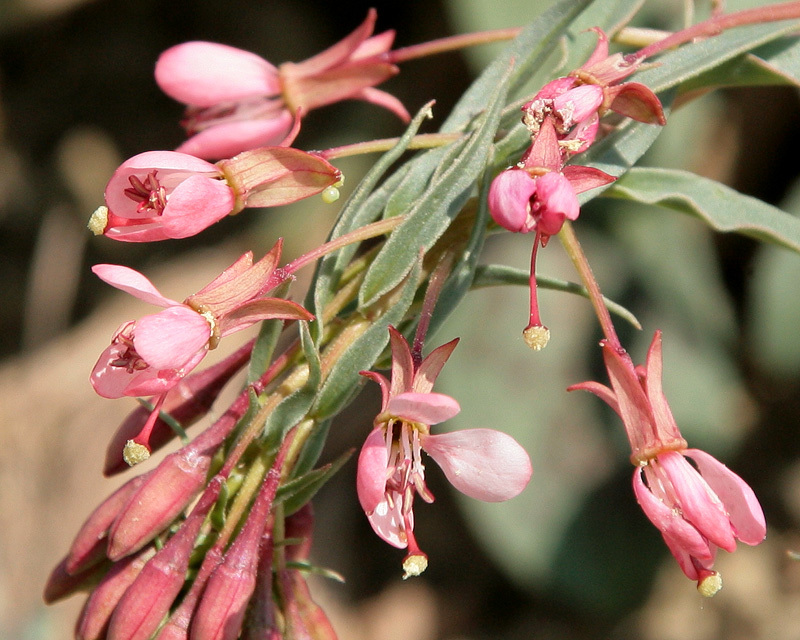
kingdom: Plantae
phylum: Tracheophyta
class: Magnoliopsida
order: Myrtales
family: Onagraceae
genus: Eremothera
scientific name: Eremothera boothii
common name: Booth's evening primrose
